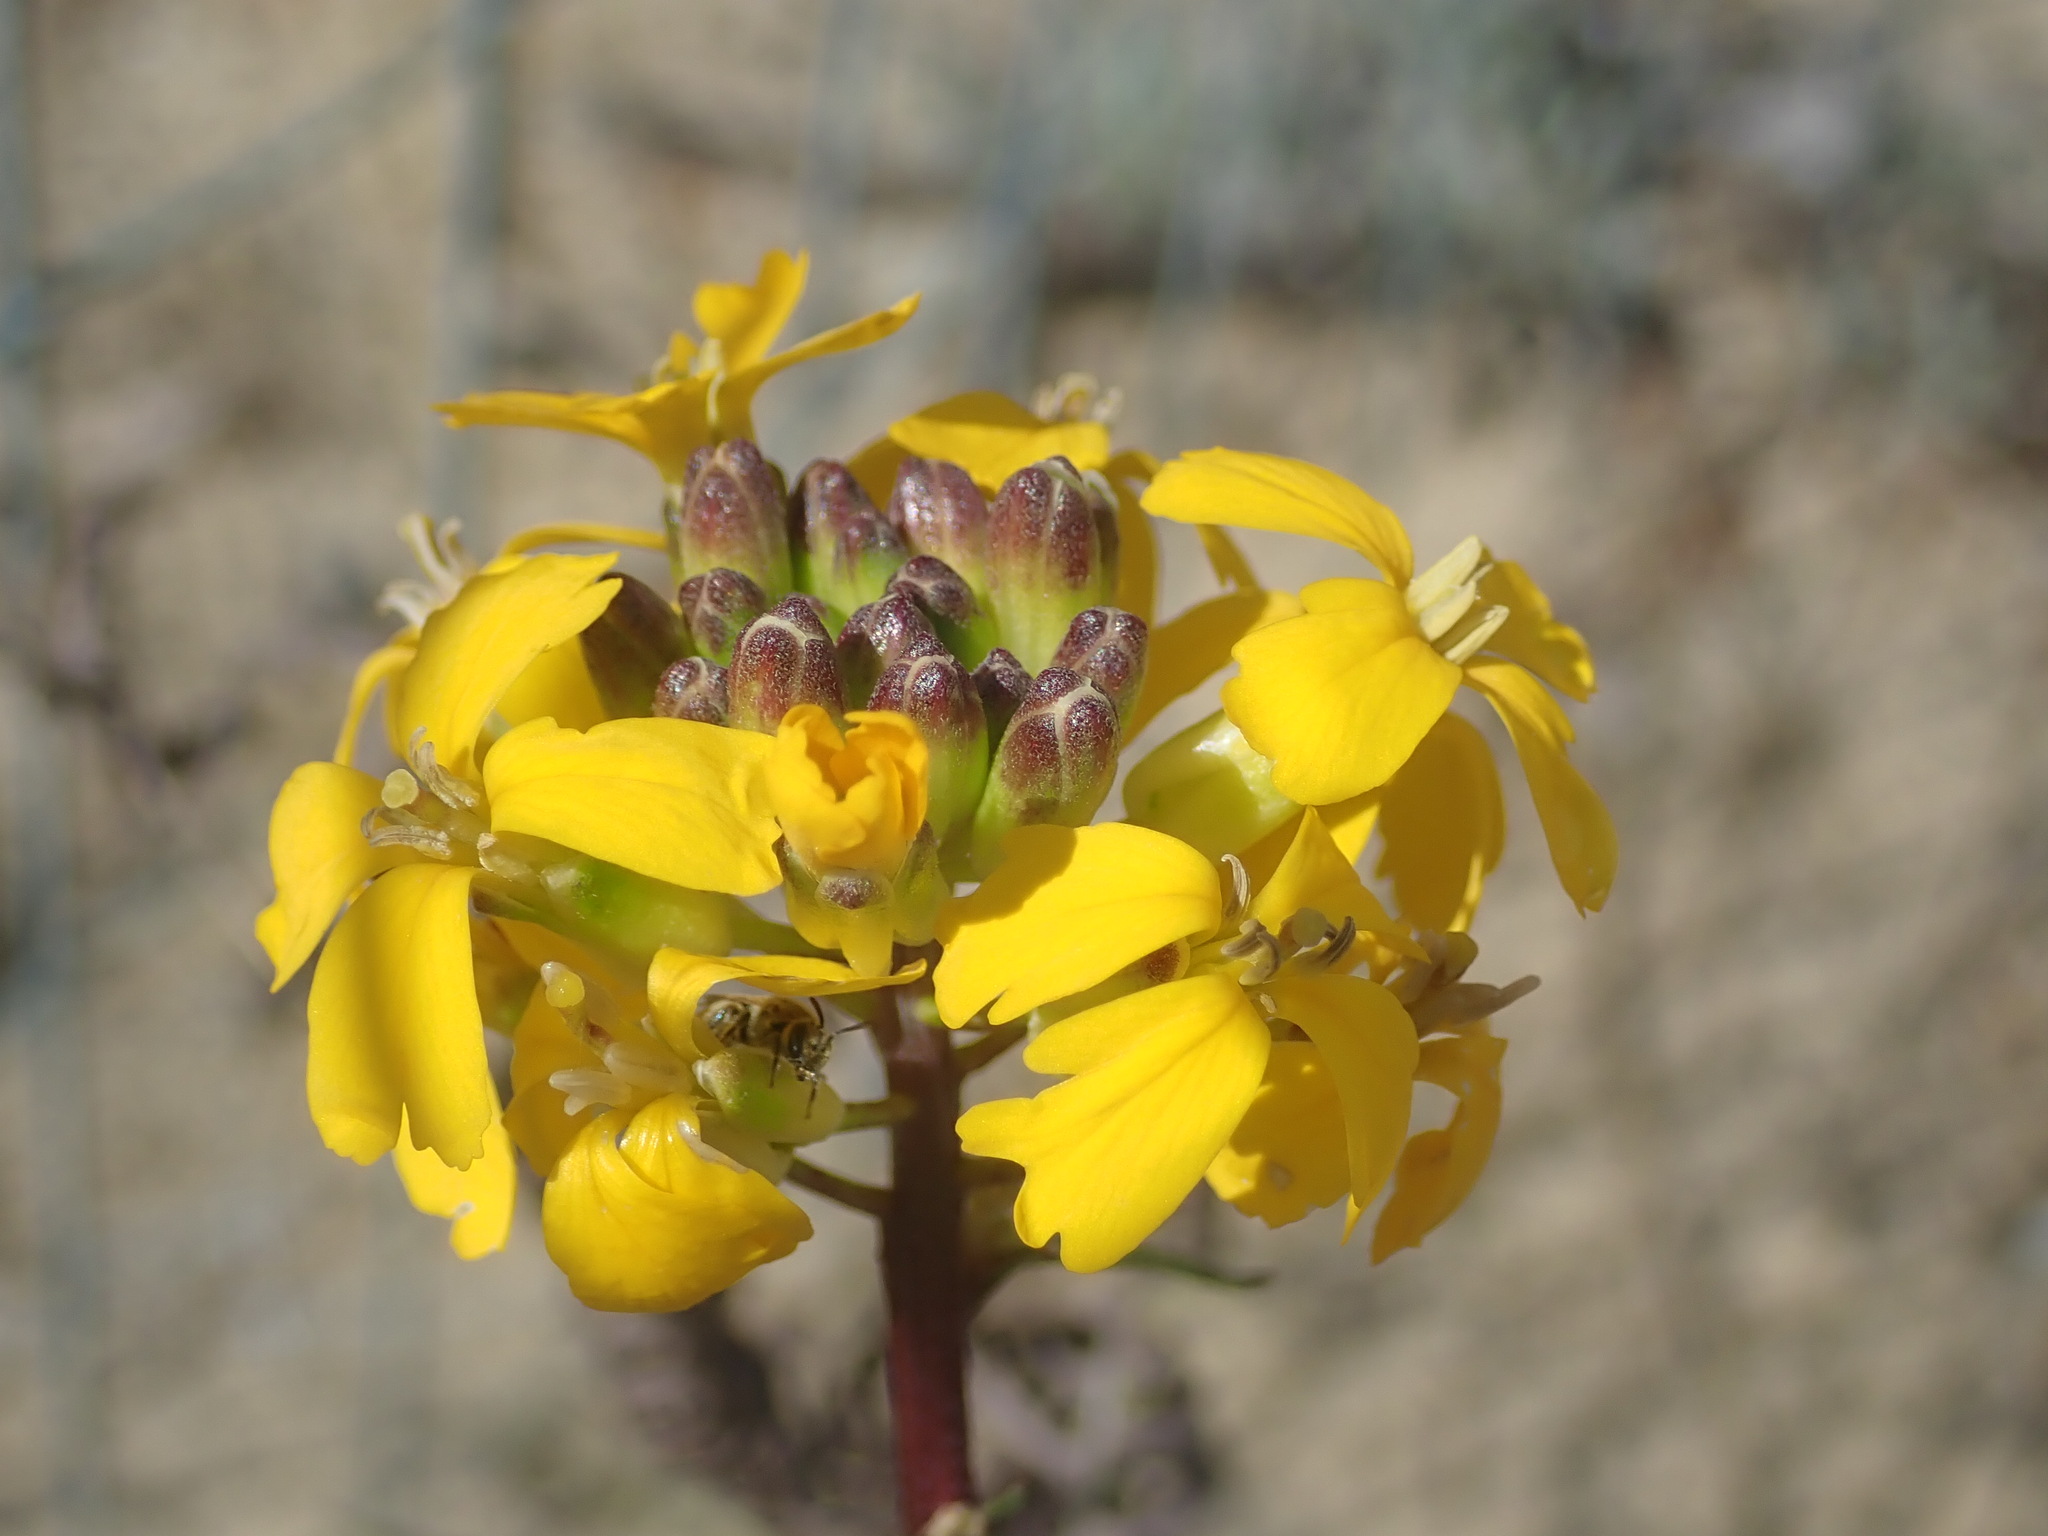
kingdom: Plantae
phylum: Tracheophyta
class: Magnoliopsida
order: Brassicales
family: Brassicaceae
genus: Erysimum
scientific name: Erysimum teretifolium
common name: Ben lomond wallflower
